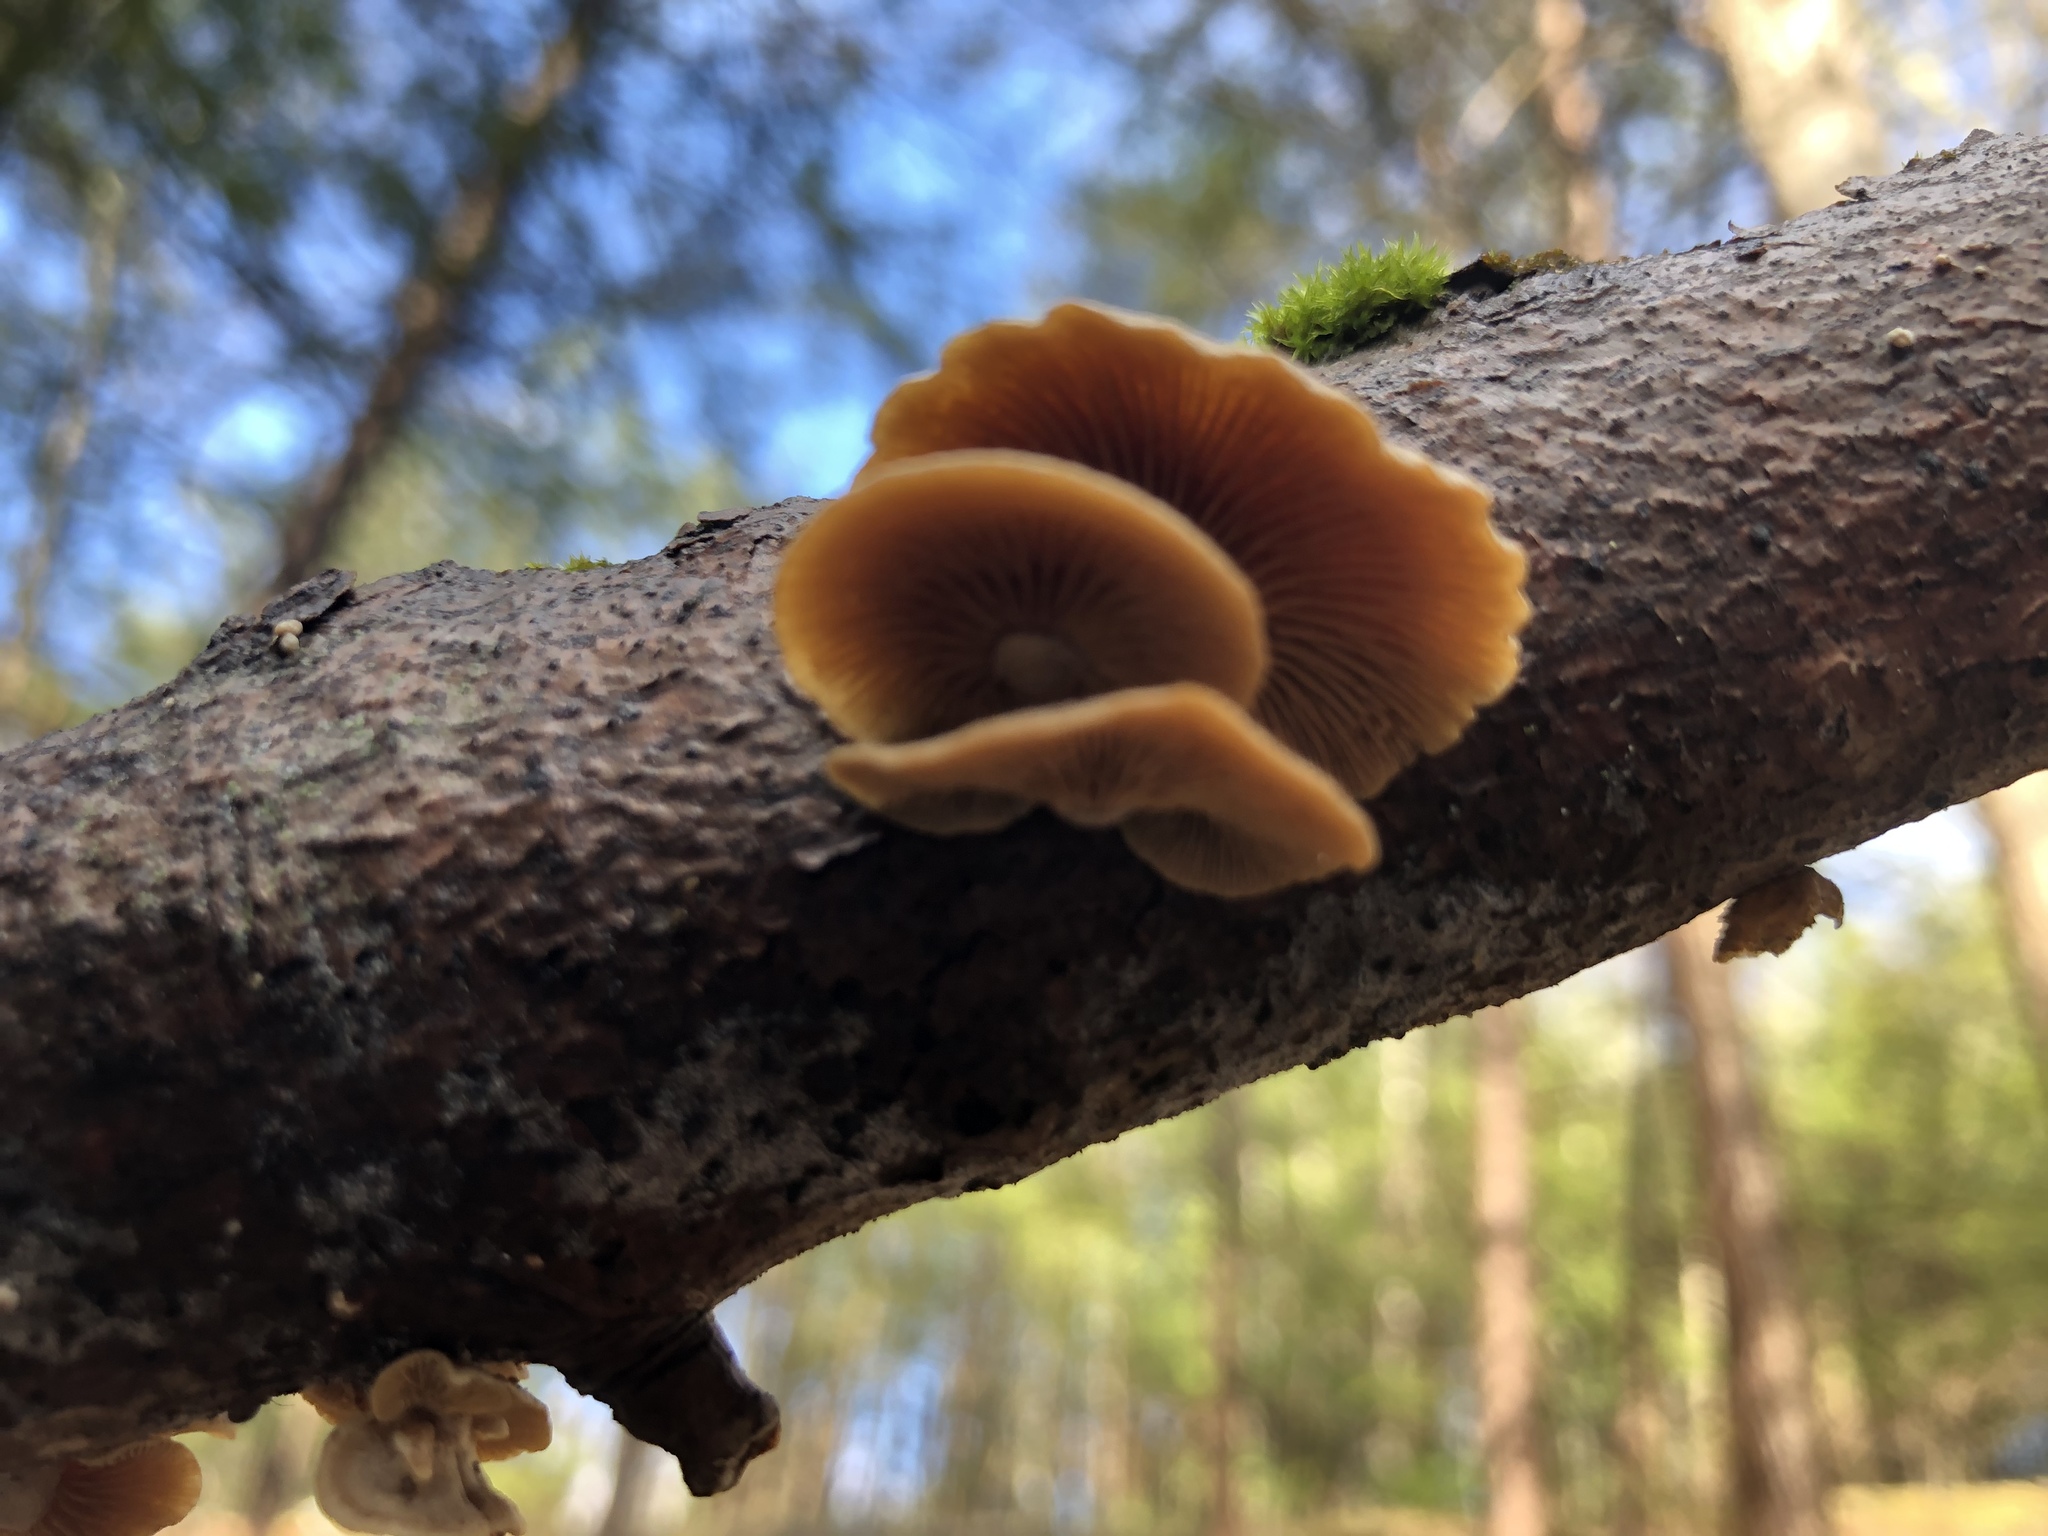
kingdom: Fungi
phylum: Basidiomycota
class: Agaricomycetes
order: Agaricales
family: Mycenaceae
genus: Panellus
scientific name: Panellus stipticus
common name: Bitter oysterling
